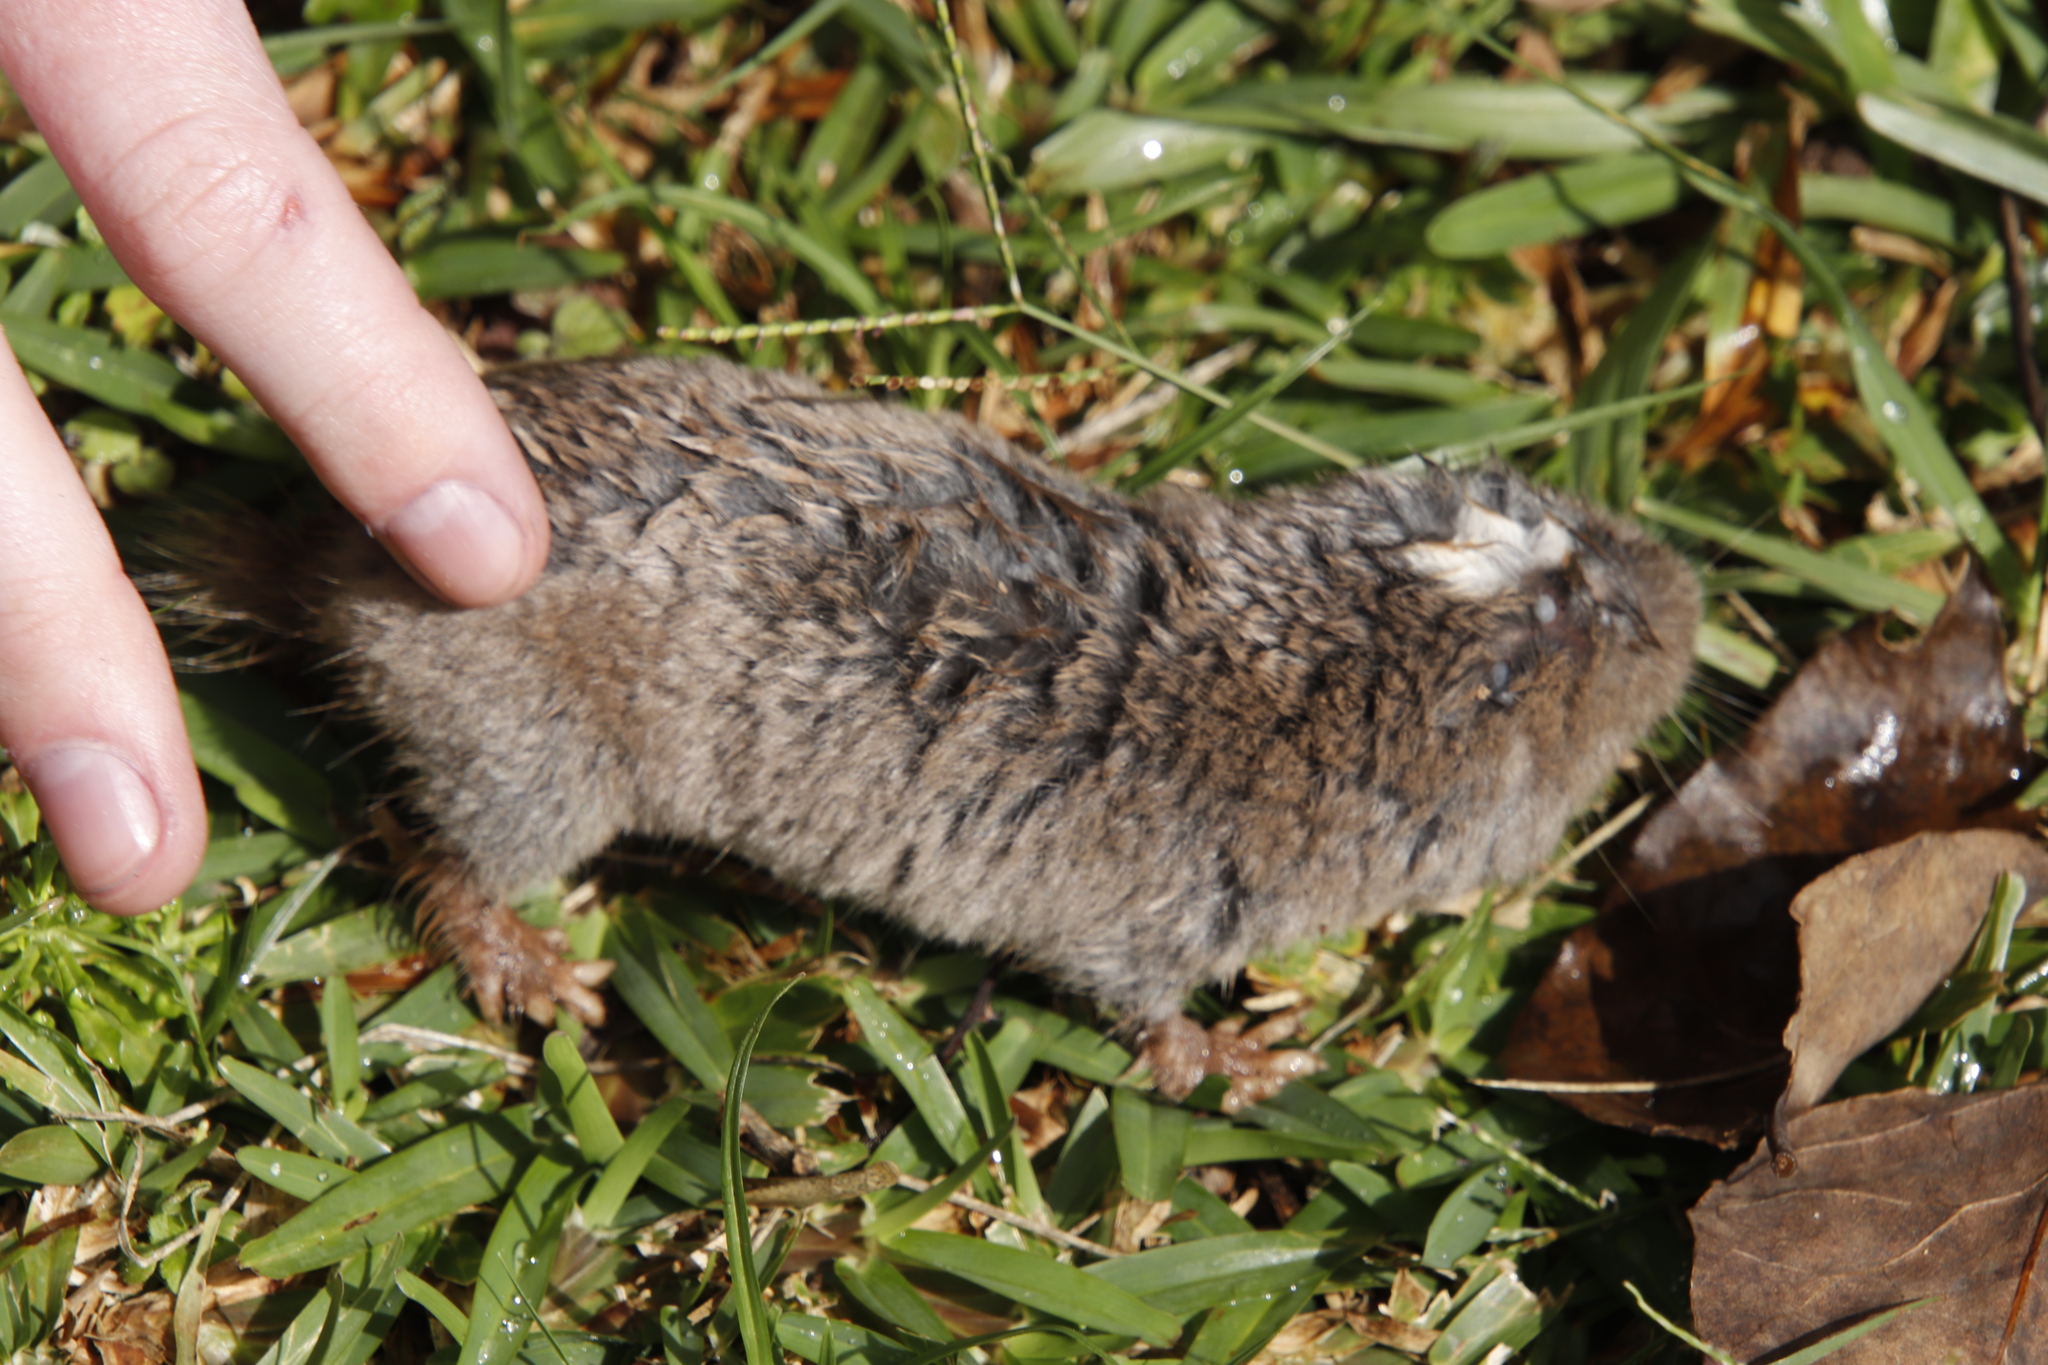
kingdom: Animalia
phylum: Chordata
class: Mammalia
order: Rodentia
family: Bathyergidae
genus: Cryptomys
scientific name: Cryptomys darlingi
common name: Darling s mole-rat
